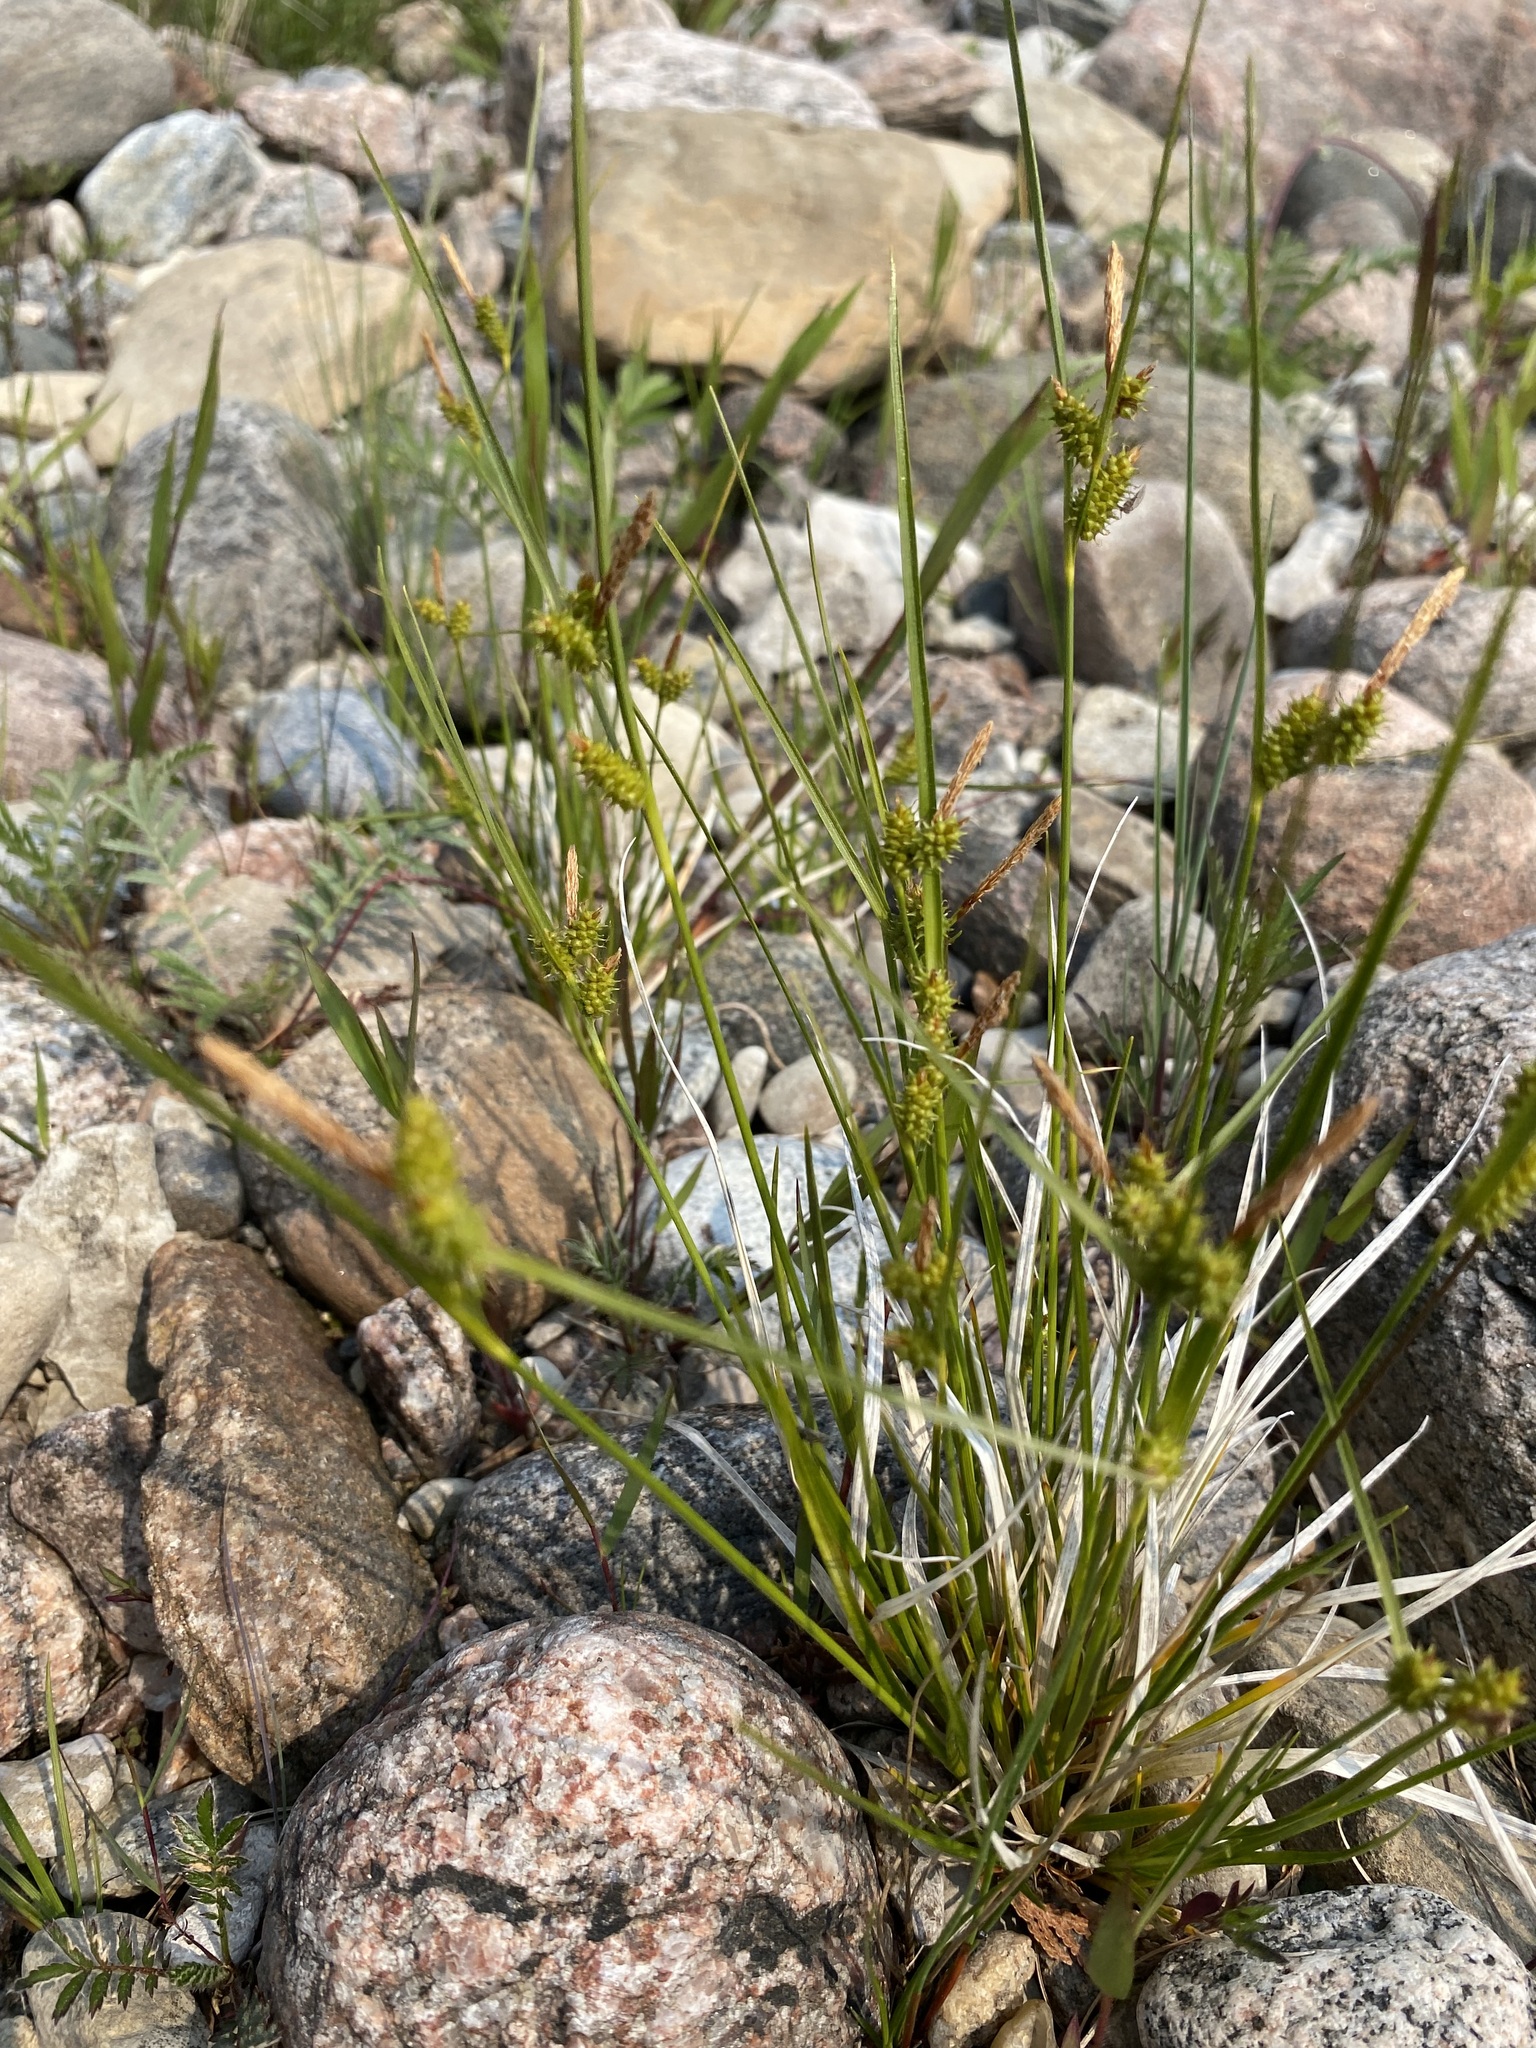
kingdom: Plantae
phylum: Tracheophyta
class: Liliopsida
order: Poales
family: Cyperaceae
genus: Carex
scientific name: Carex
